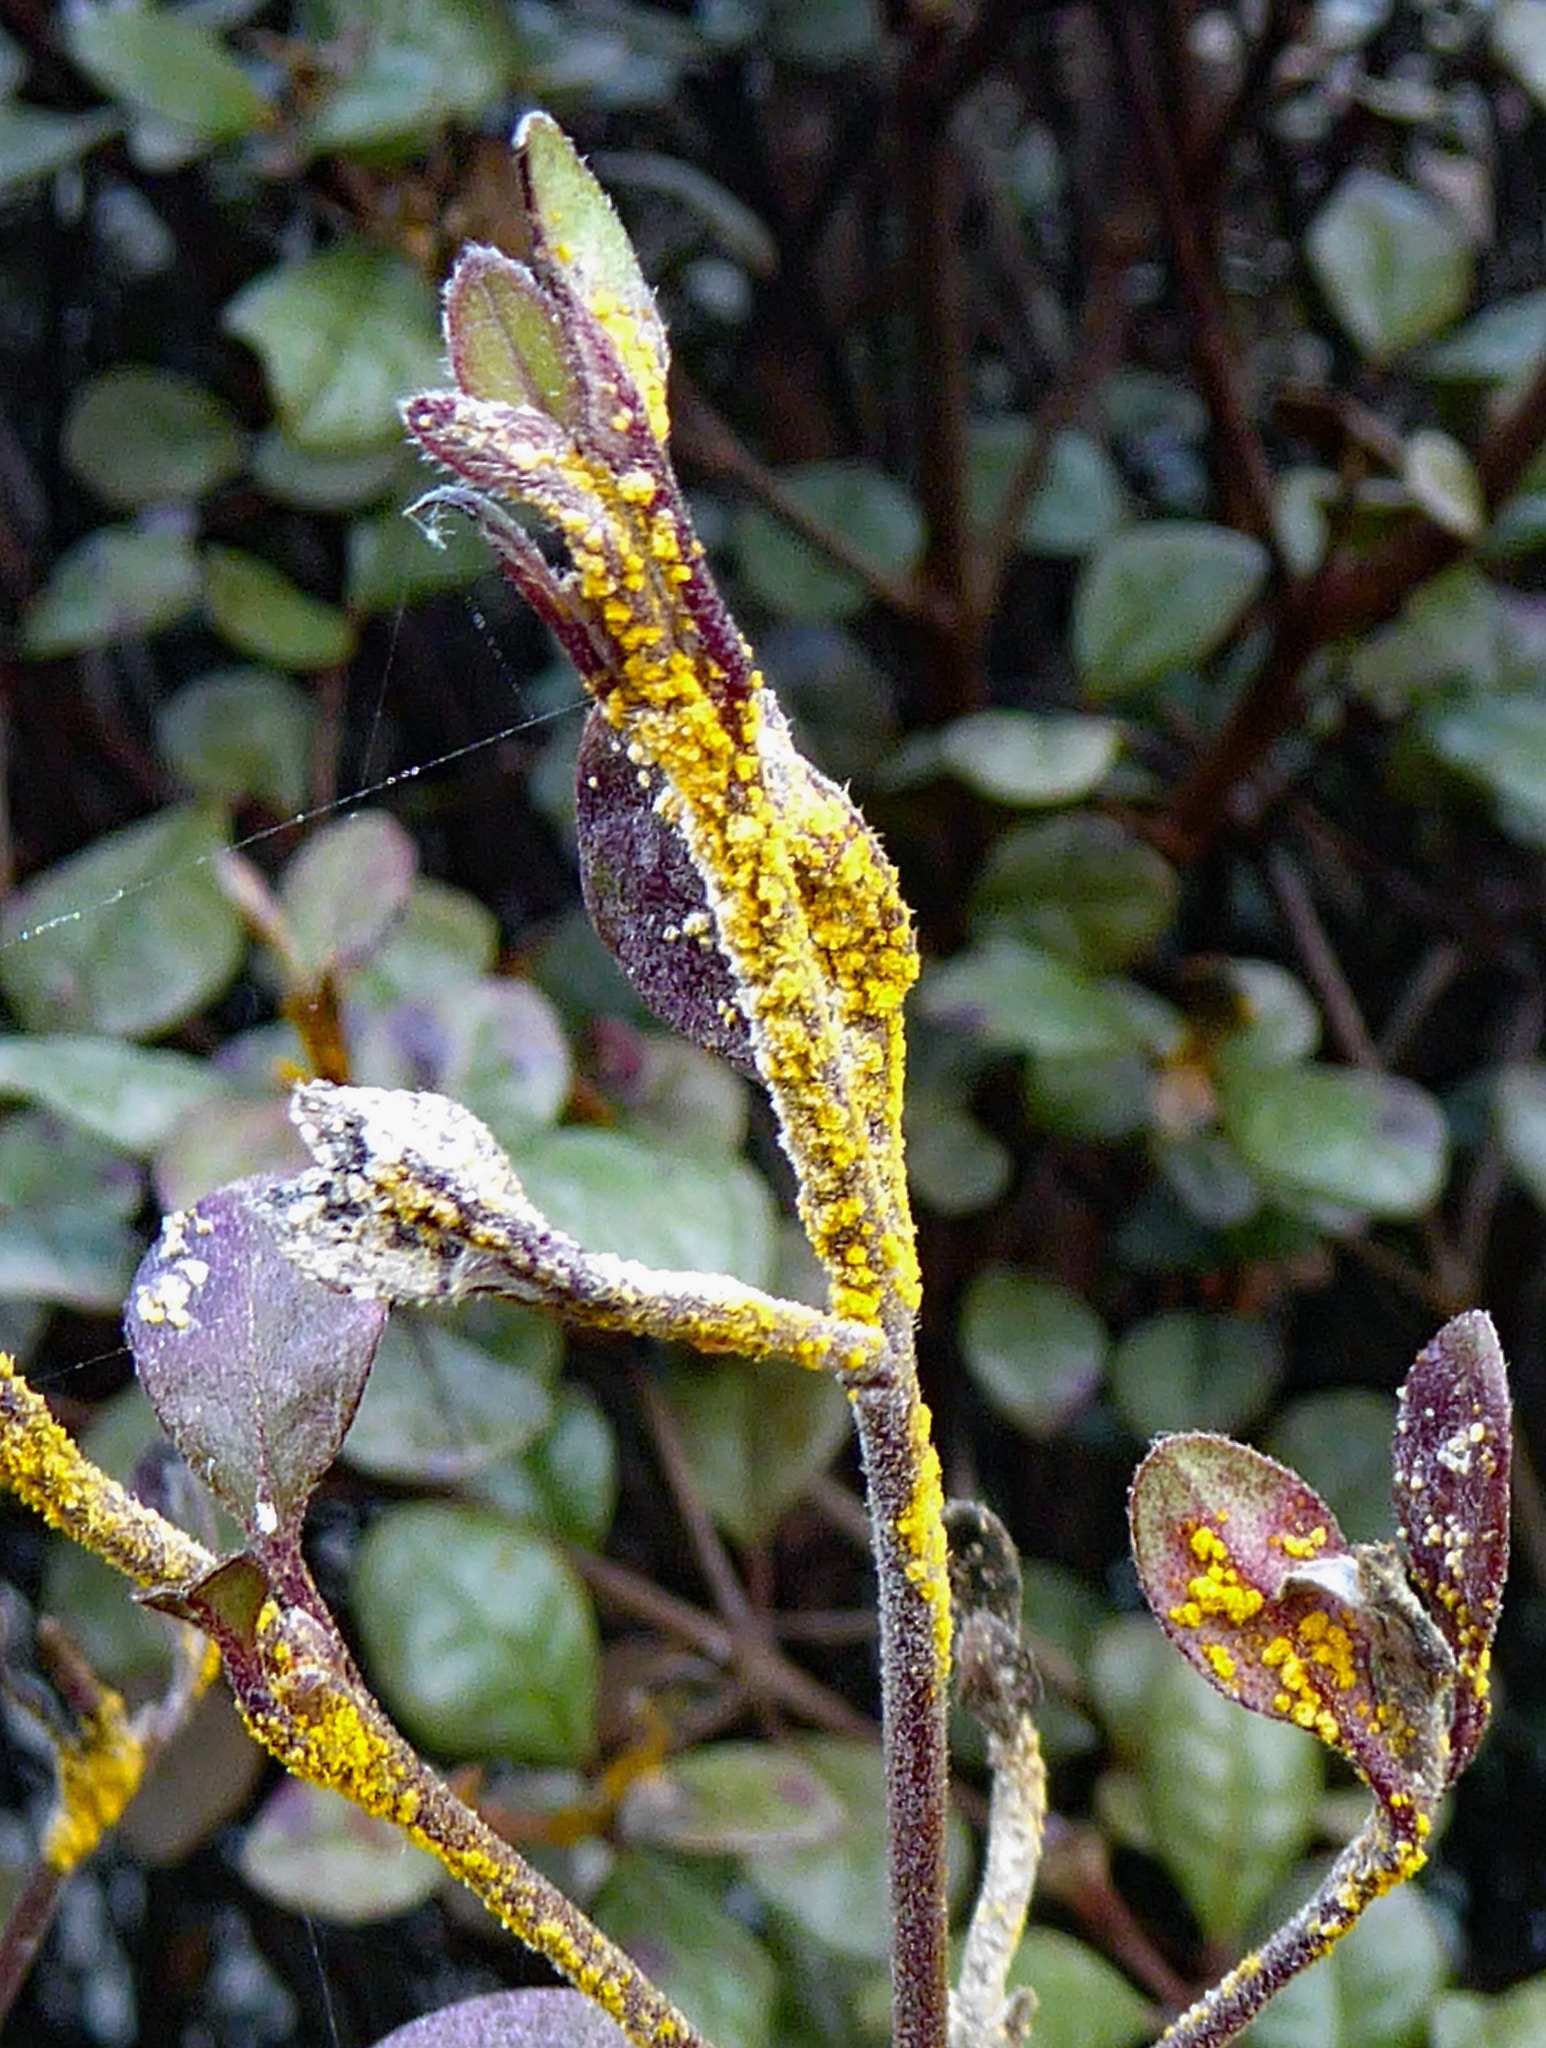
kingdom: Fungi
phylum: Basidiomycota
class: Pucciniomycetes
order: Pucciniales
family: Sphaerophragmiaceae
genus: Austropuccinia
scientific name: Austropuccinia psidii
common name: Myrtle rust
